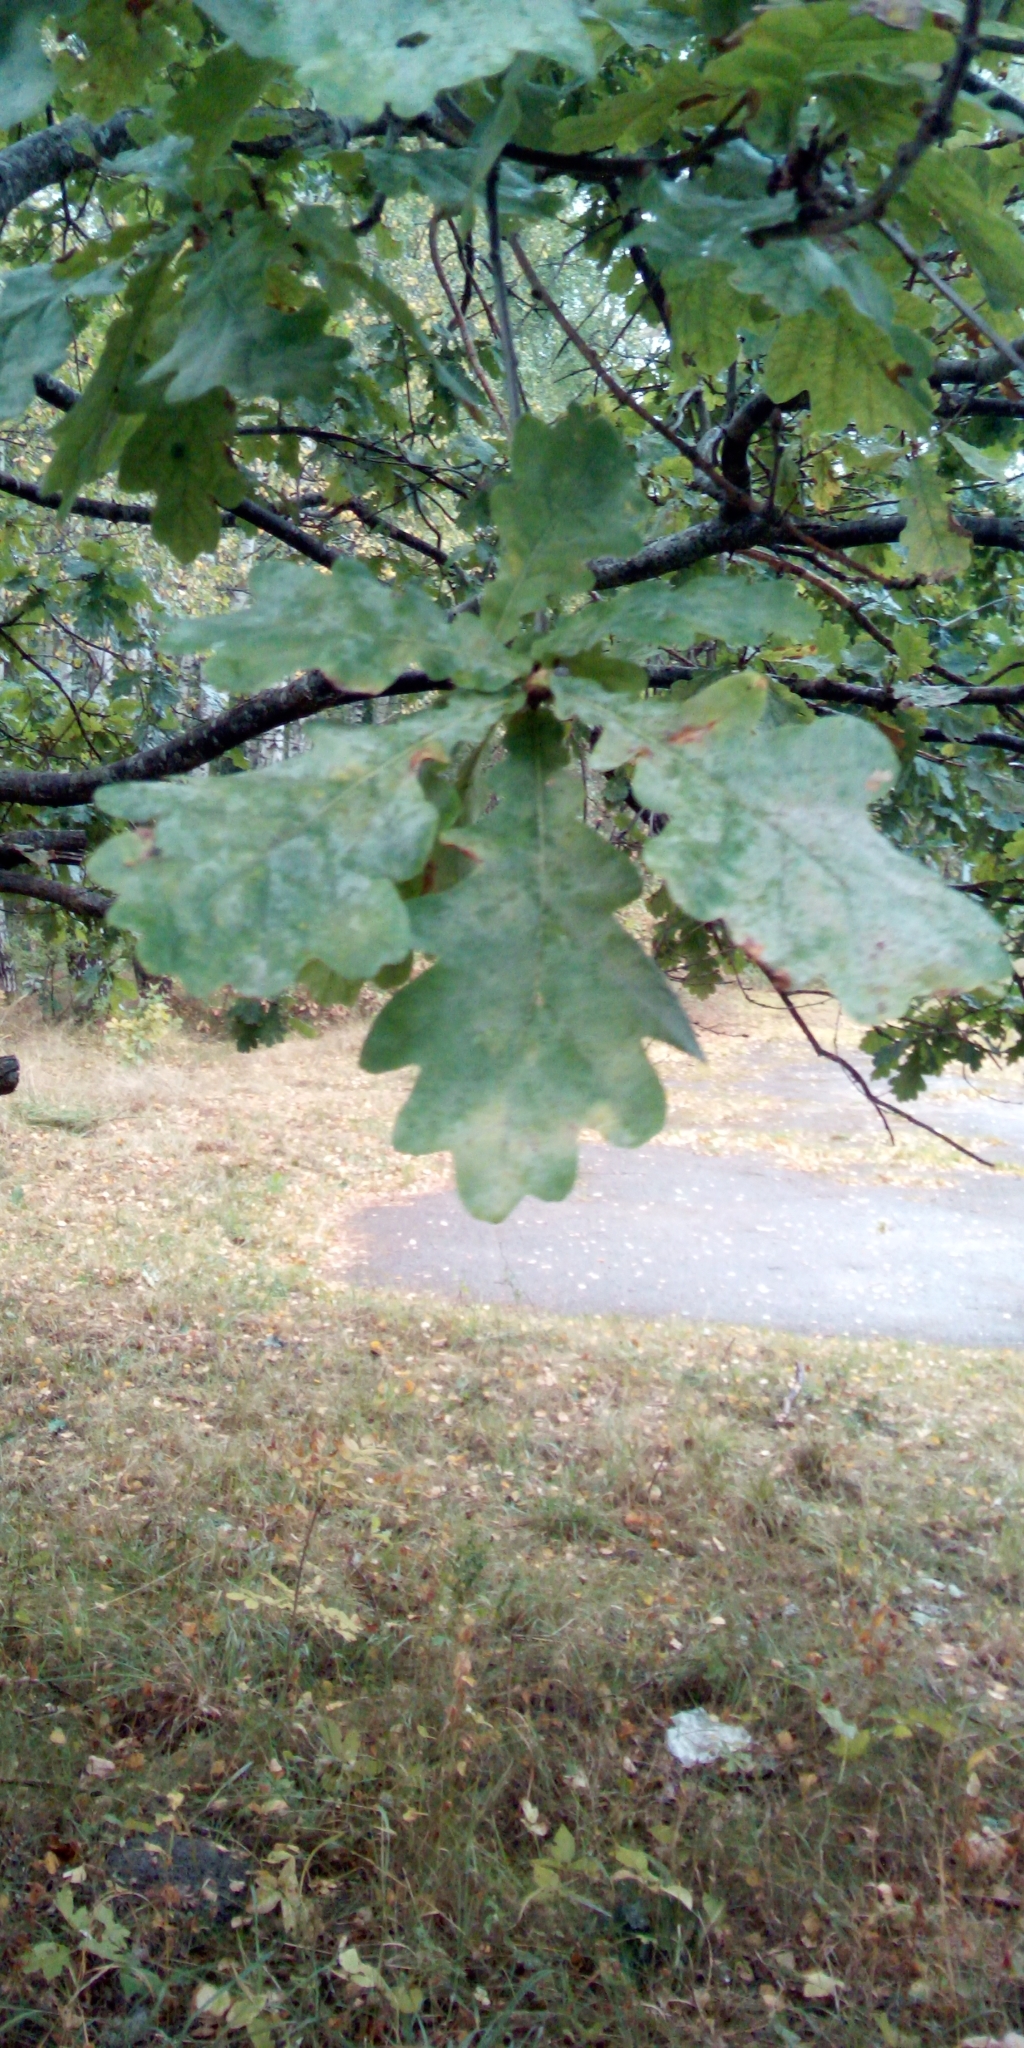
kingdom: Plantae
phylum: Tracheophyta
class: Magnoliopsida
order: Fagales
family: Fagaceae
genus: Quercus
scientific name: Quercus robur
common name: Pedunculate oak
